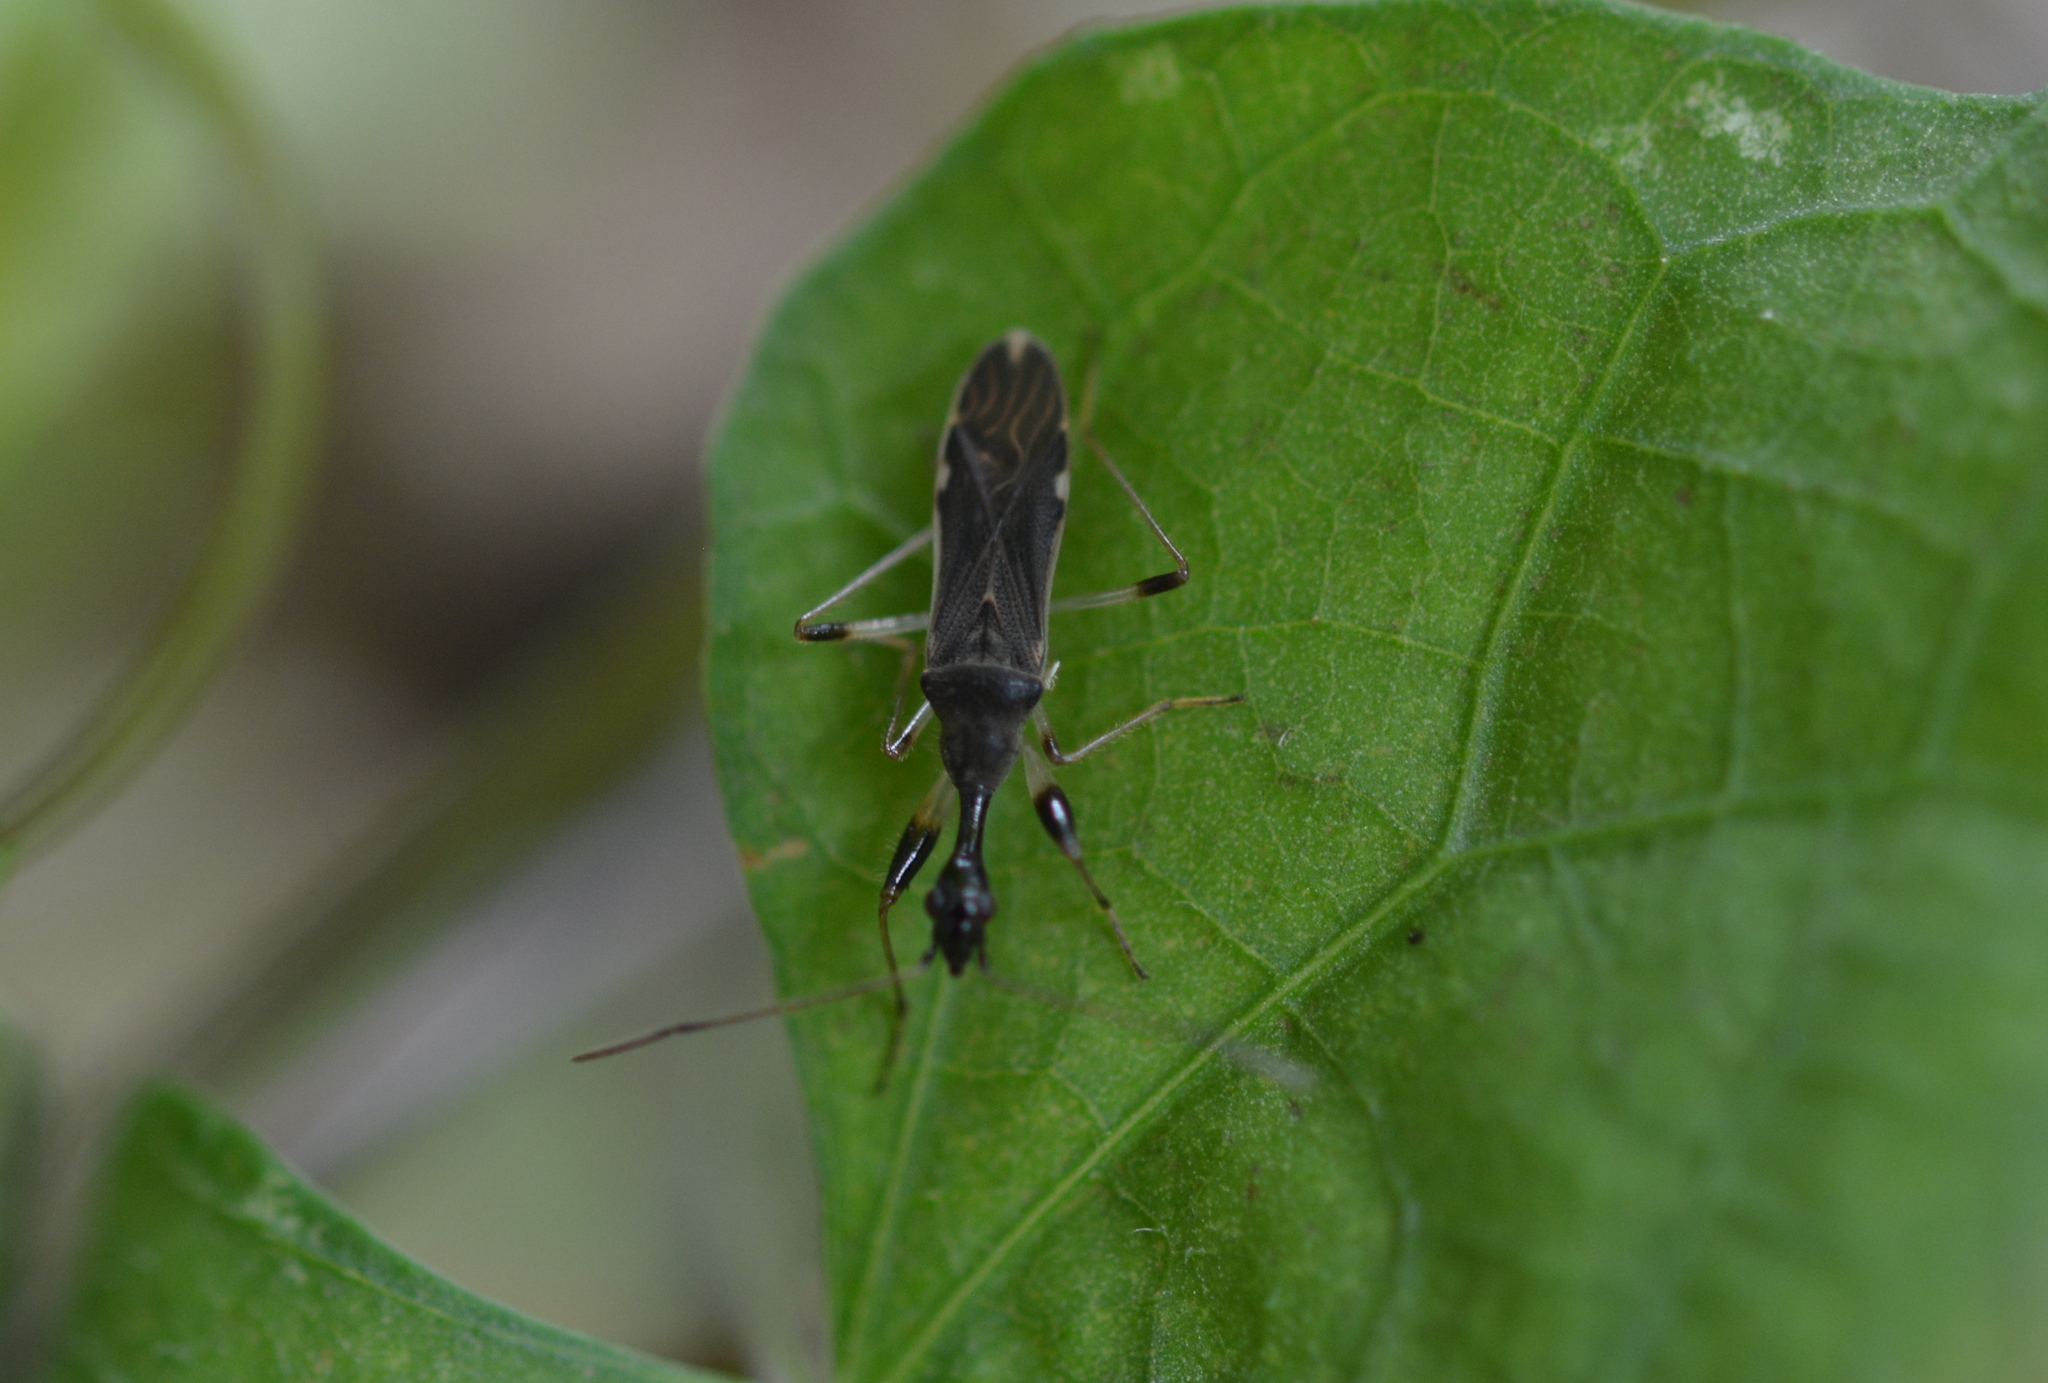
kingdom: Animalia
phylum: Arthropoda
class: Insecta
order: Hemiptera
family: Rhyparochromidae
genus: Myodocha
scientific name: Myodocha serripes
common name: Long-necked seed bug
